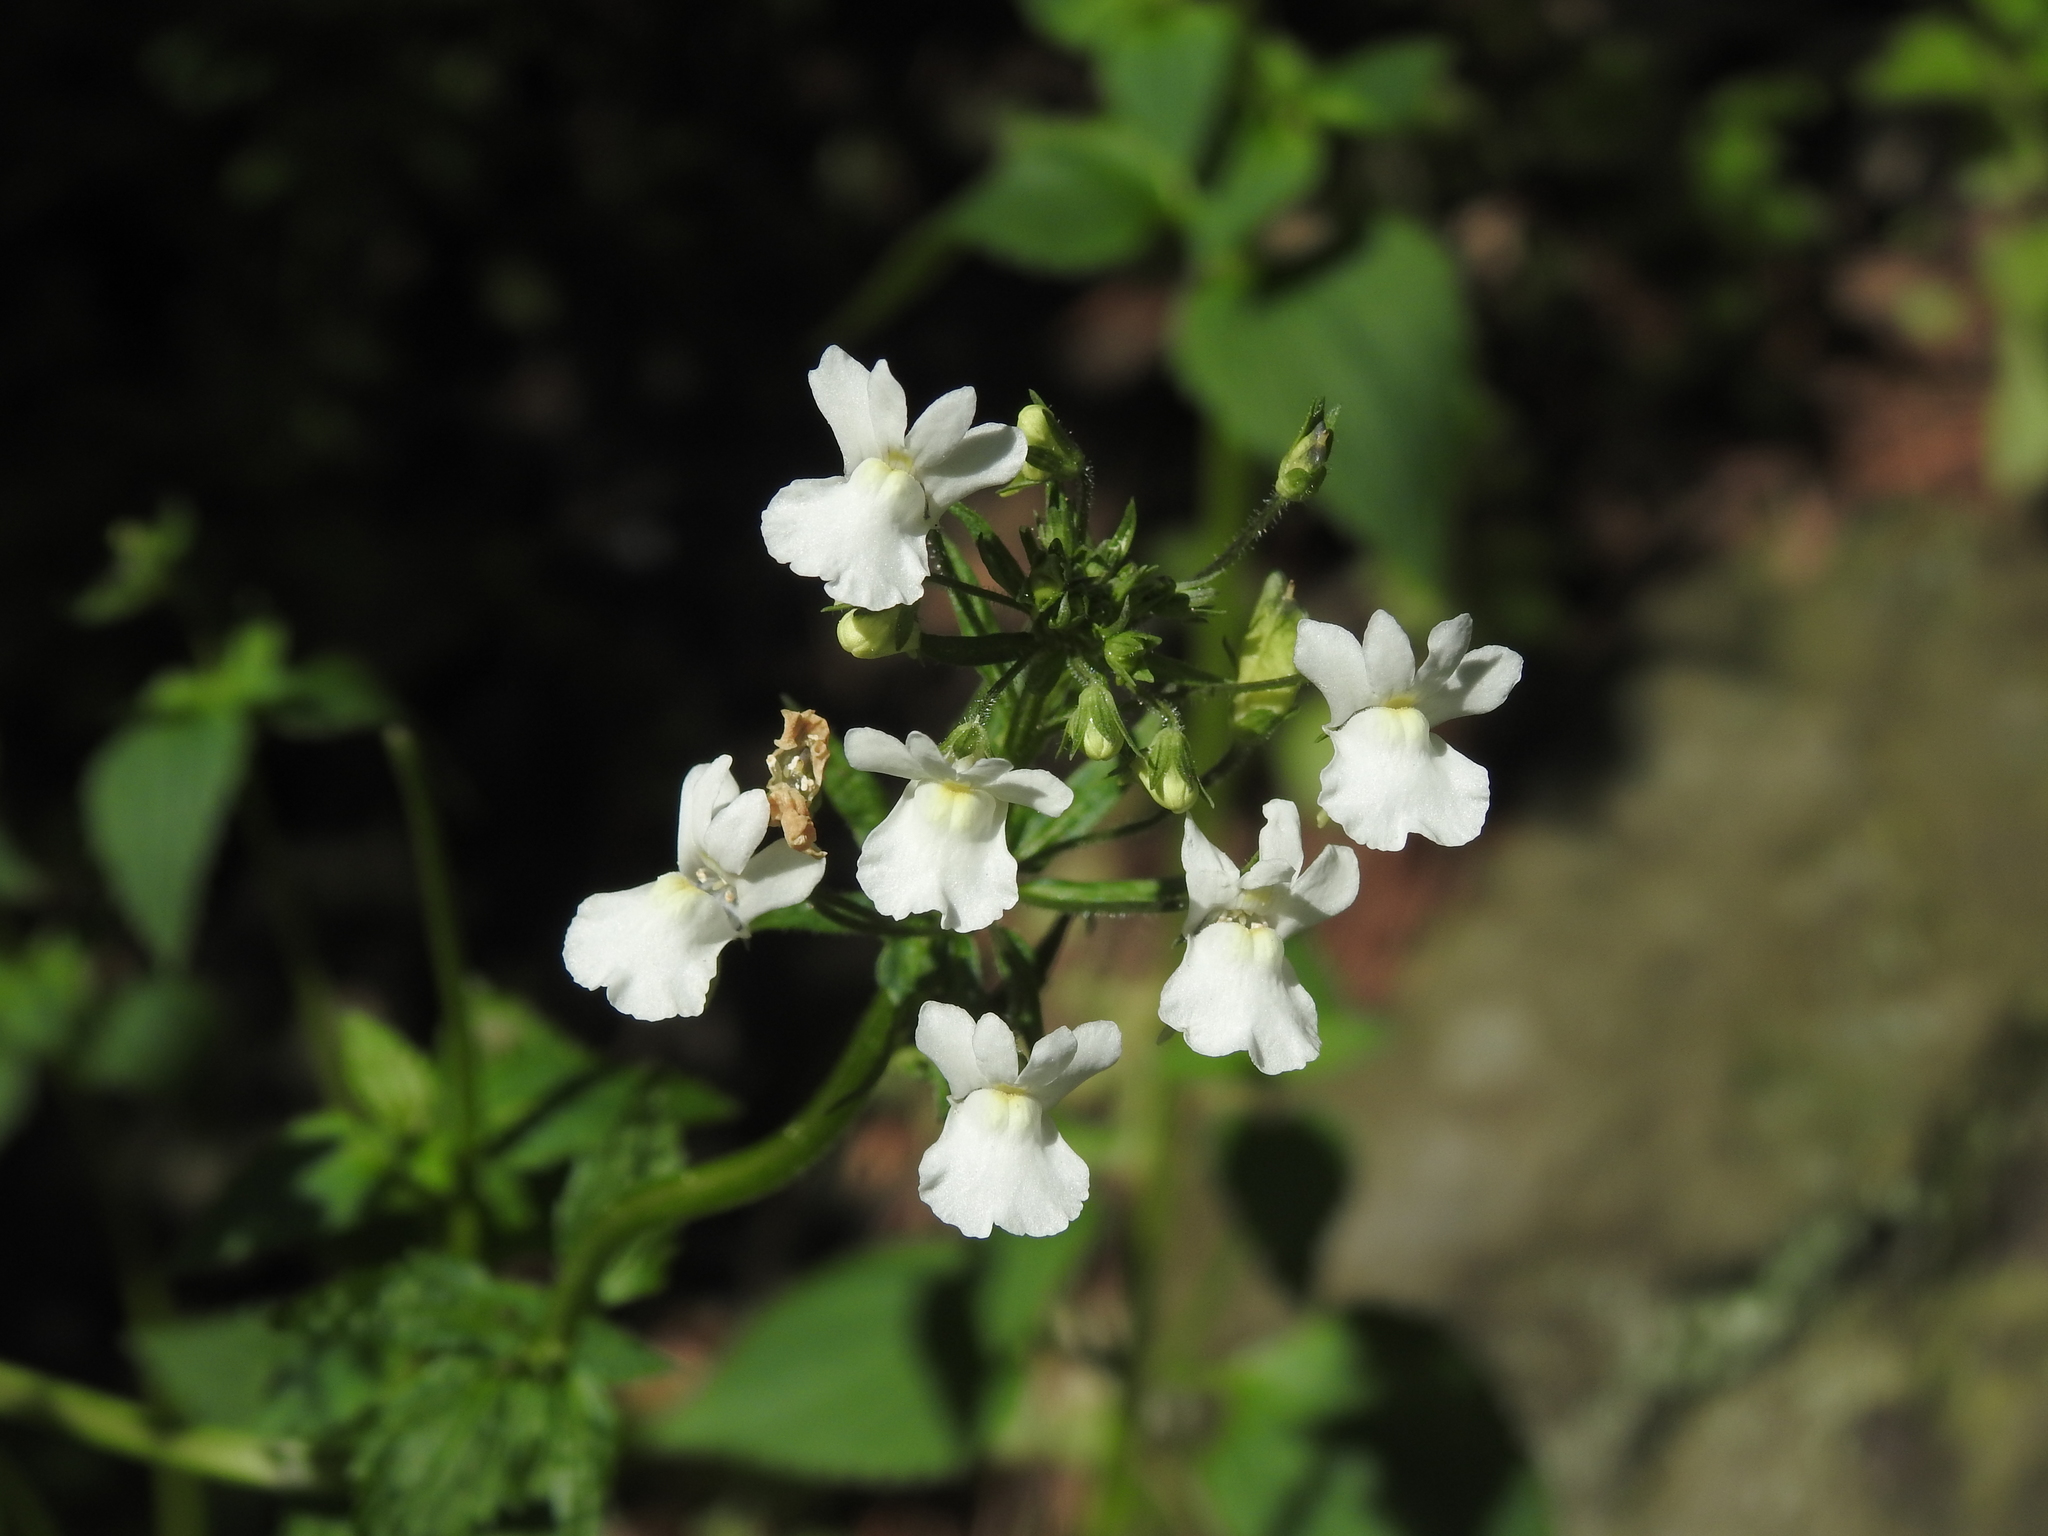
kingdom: Plantae
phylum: Tracheophyta
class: Magnoliopsida
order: Lamiales
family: Scrophulariaceae
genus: Nemesia
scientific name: Nemesia floribunda
